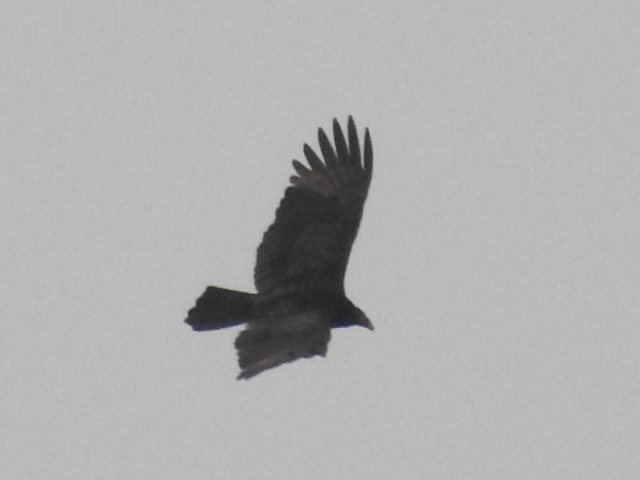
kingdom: Animalia
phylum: Chordata
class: Aves
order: Accipitriformes
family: Cathartidae
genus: Cathartes
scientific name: Cathartes aura
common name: Turkey vulture
